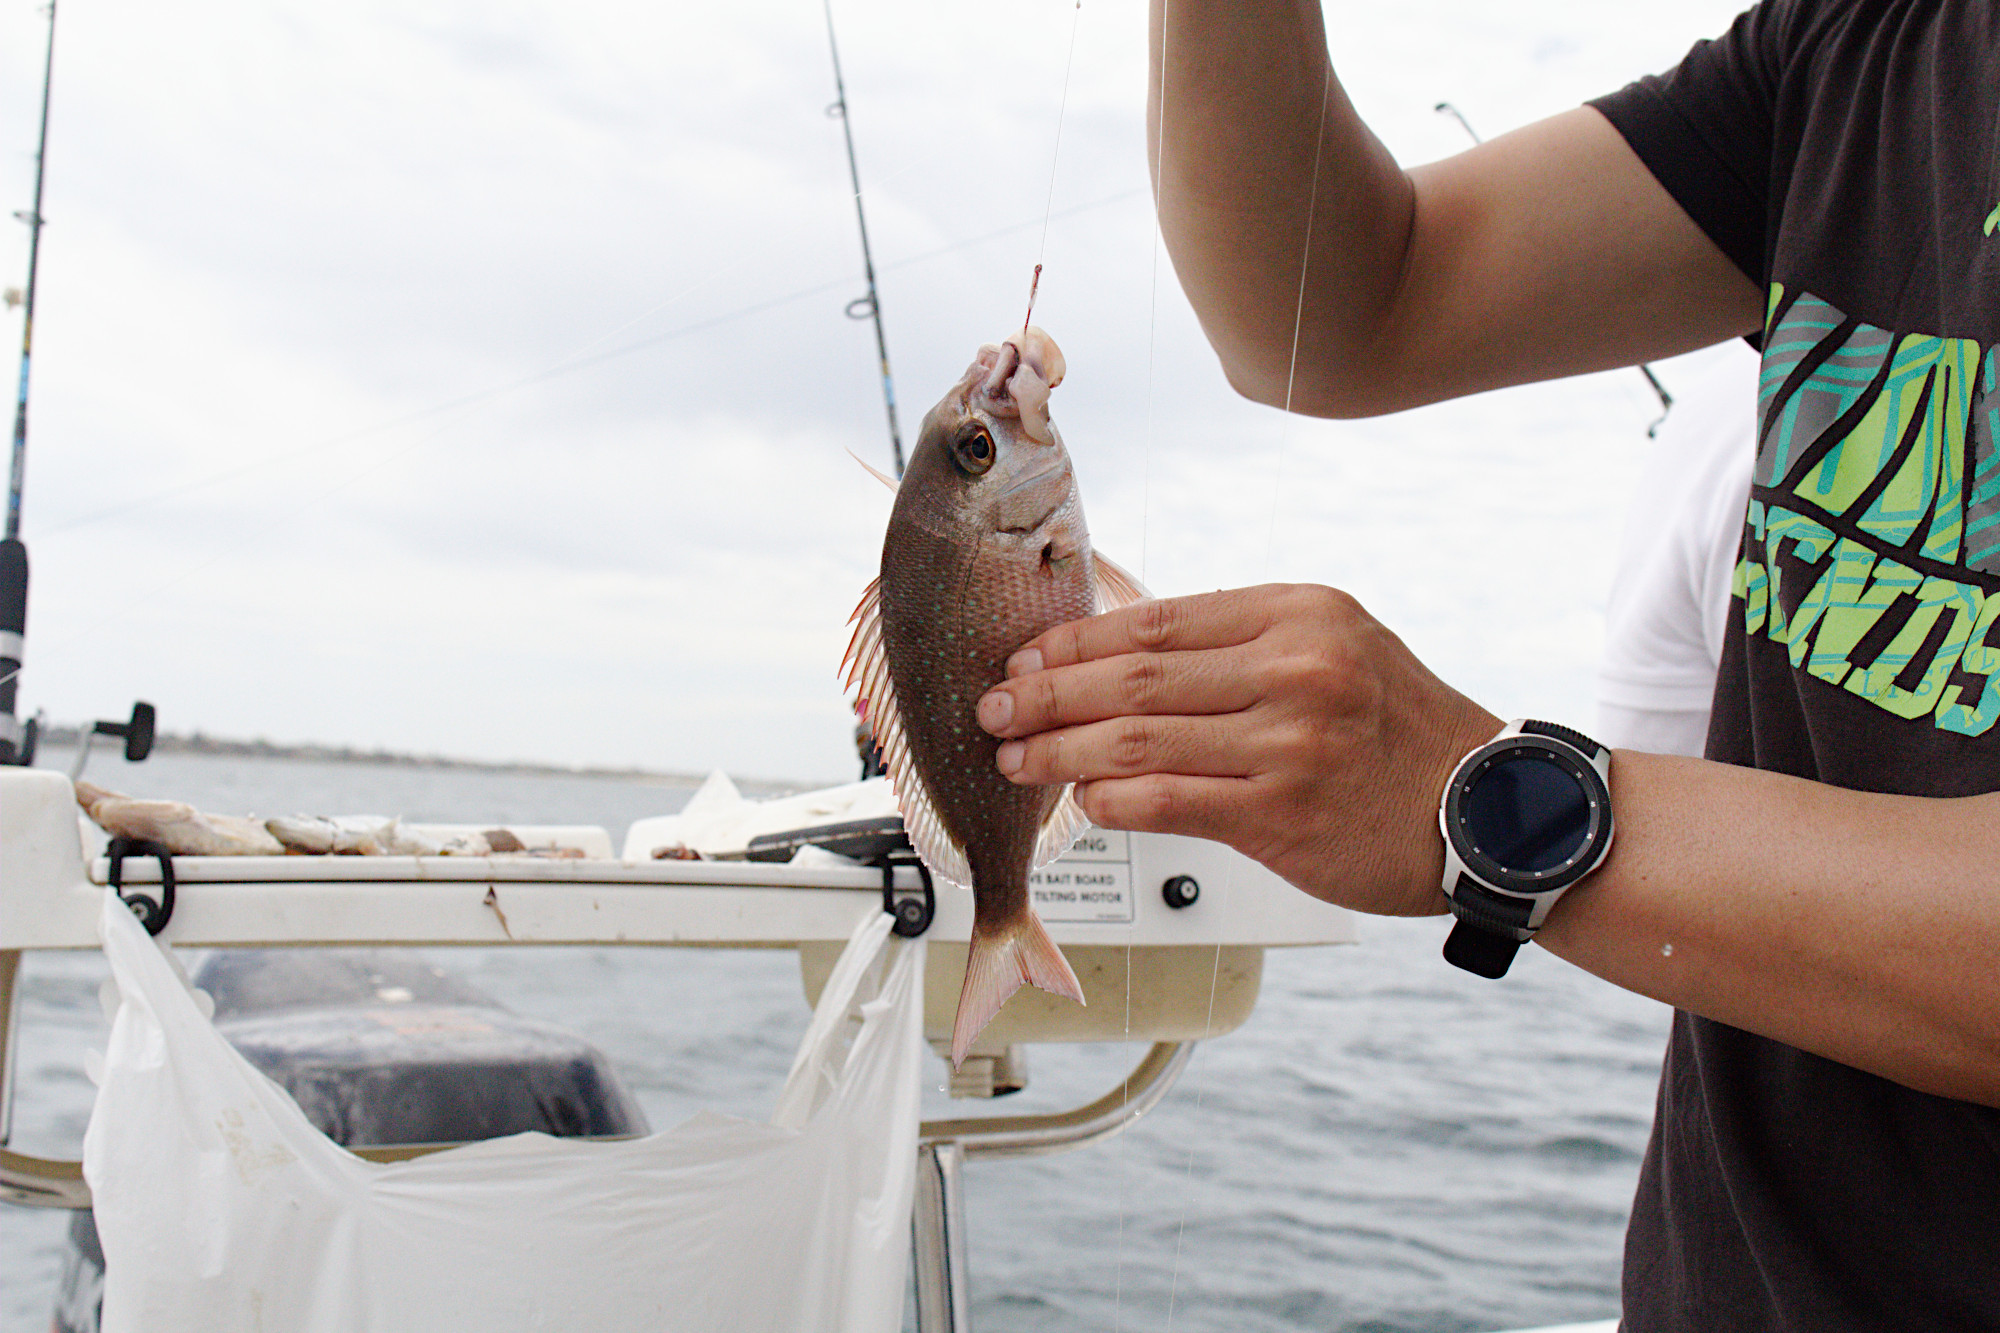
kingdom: Animalia
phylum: Chordata
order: Perciformes
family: Sparidae
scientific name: Sparidae
